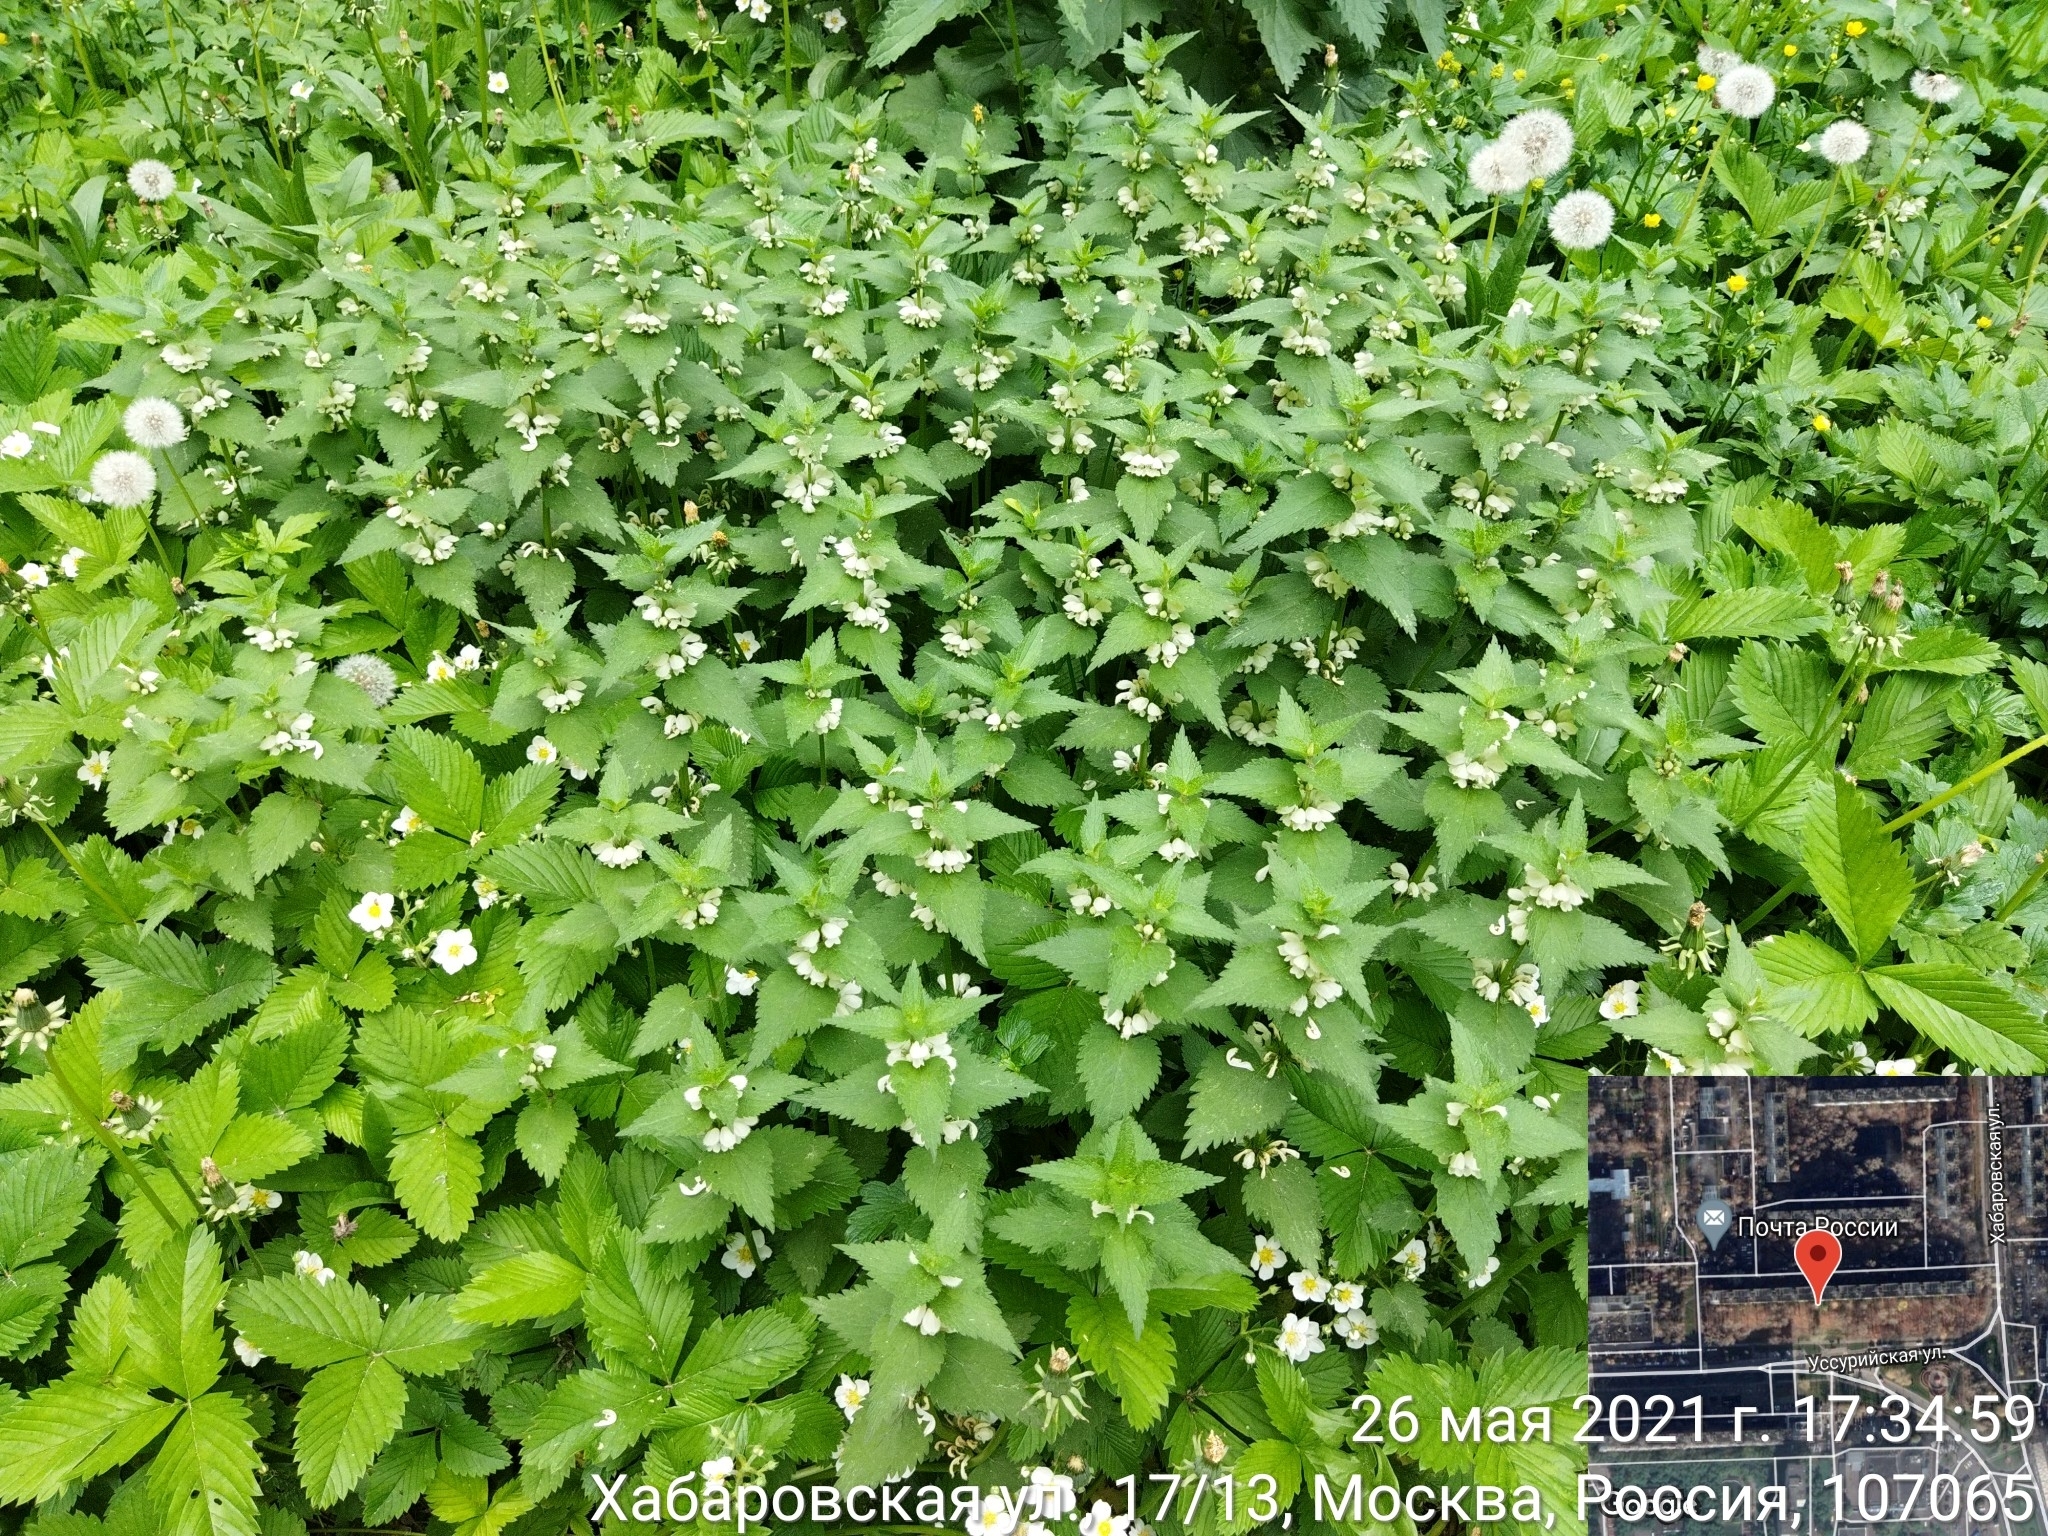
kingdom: Plantae
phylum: Tracheophyta
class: Magnoliopsida
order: Lamiales
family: Lamiaceae
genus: Lamium
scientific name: Lamium album
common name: White dead-nettle
